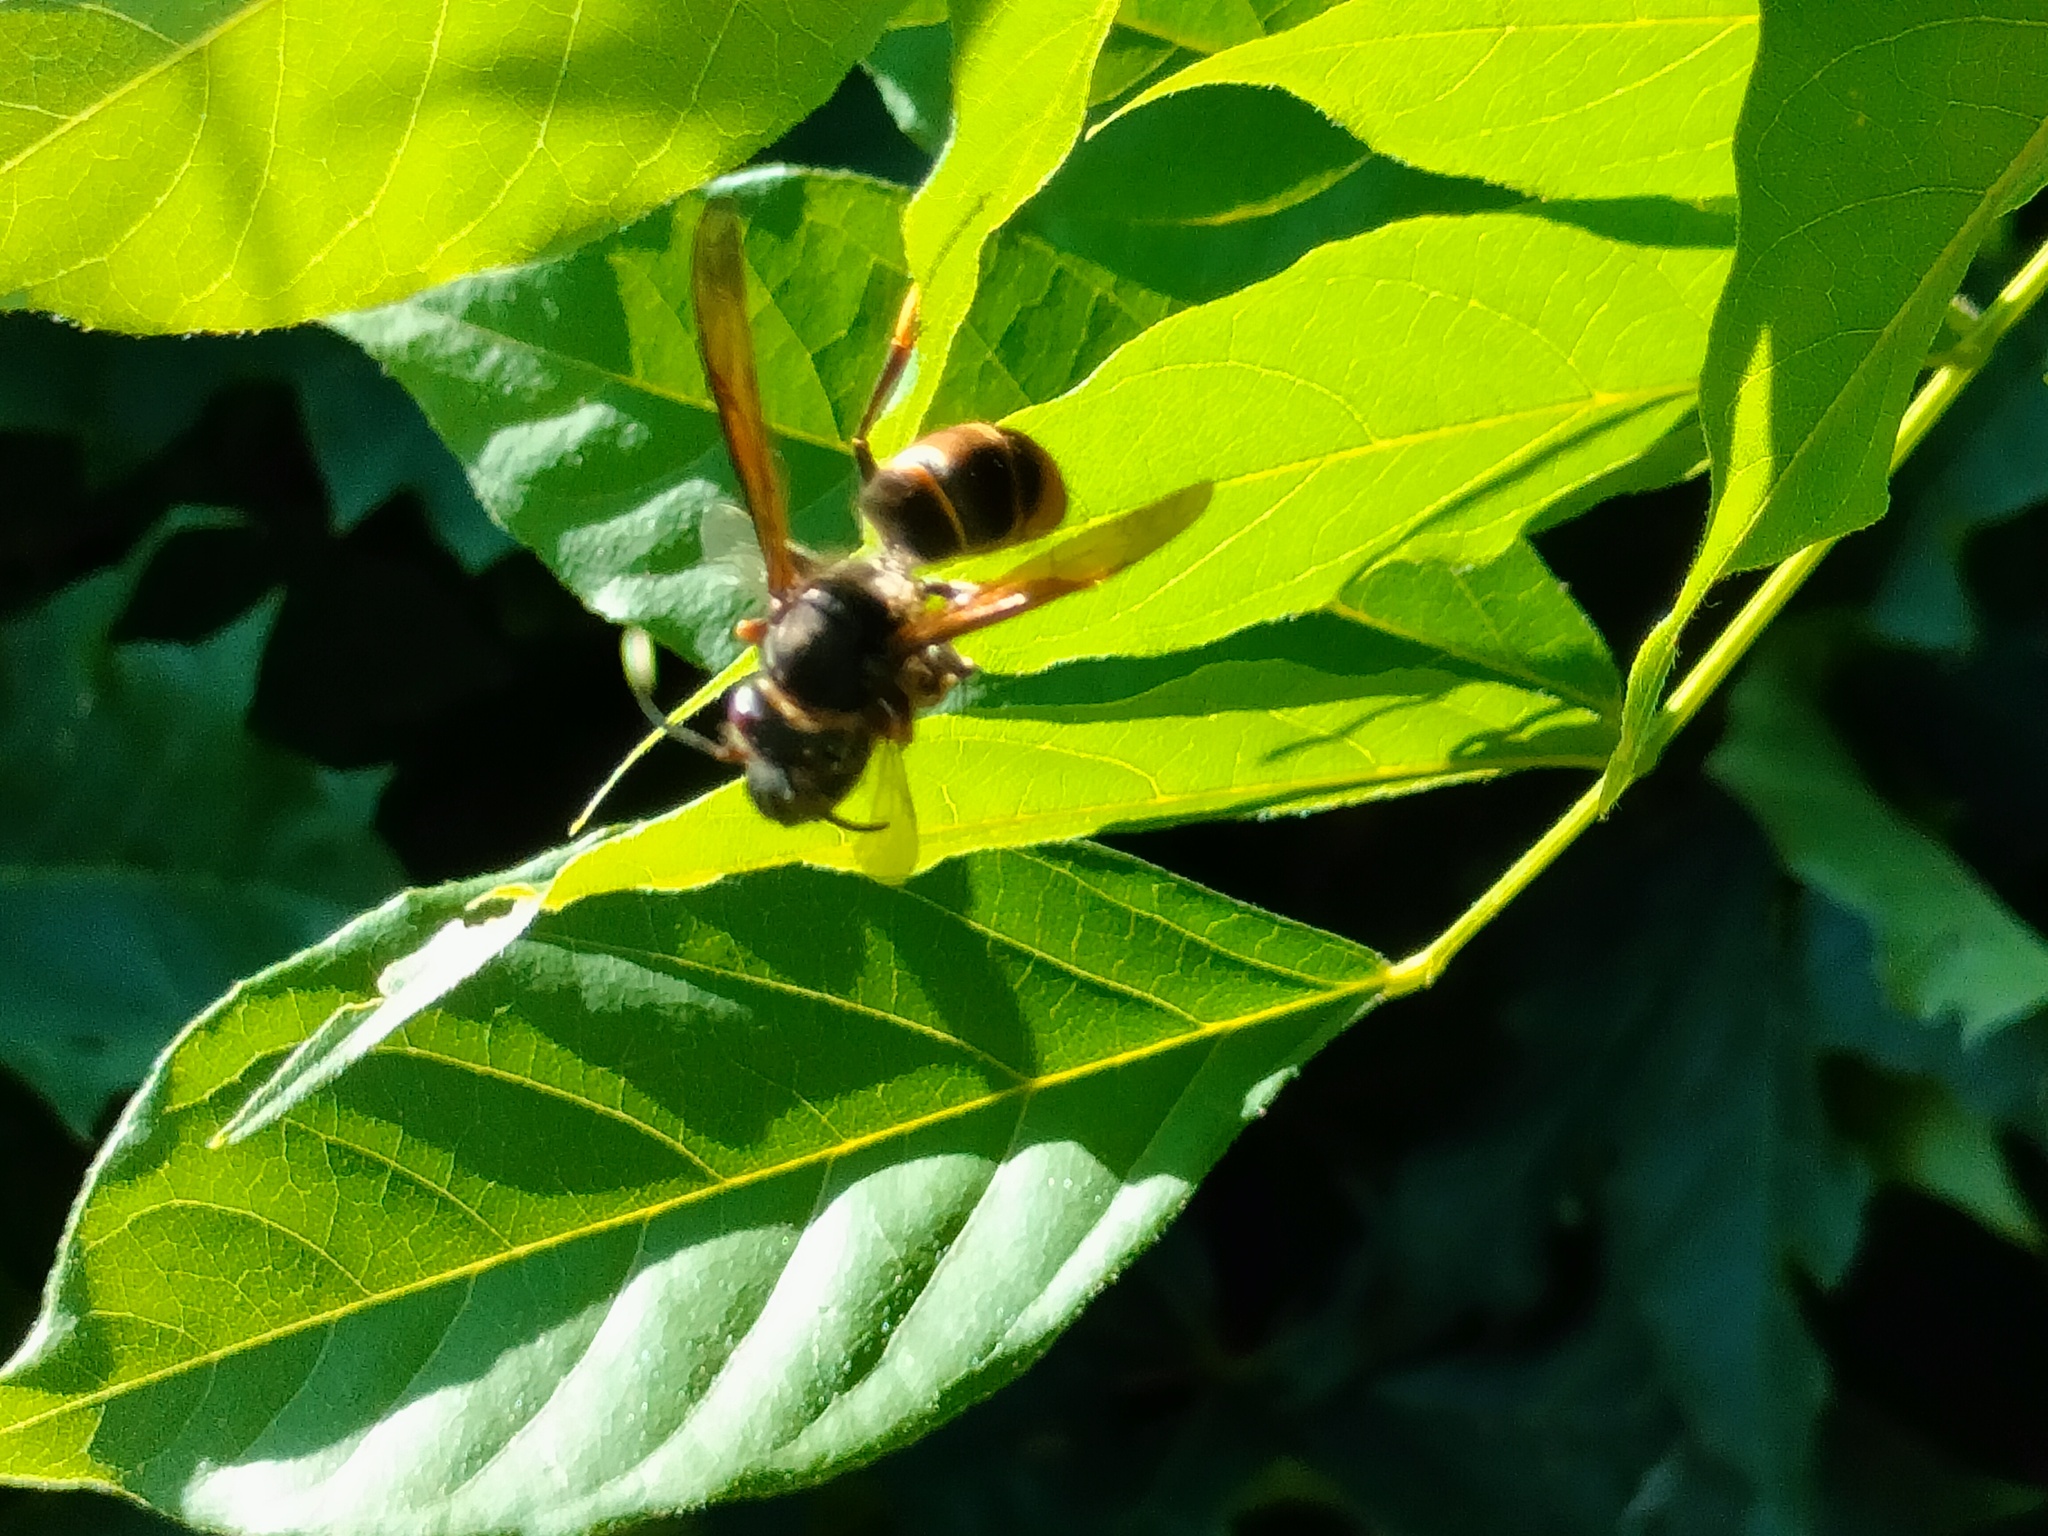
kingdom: Animalia
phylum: Arthropoda
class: Insecta
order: Hymenoptera
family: Vespidae
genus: Vespa
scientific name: Vespa velutina
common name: Asian hornet
